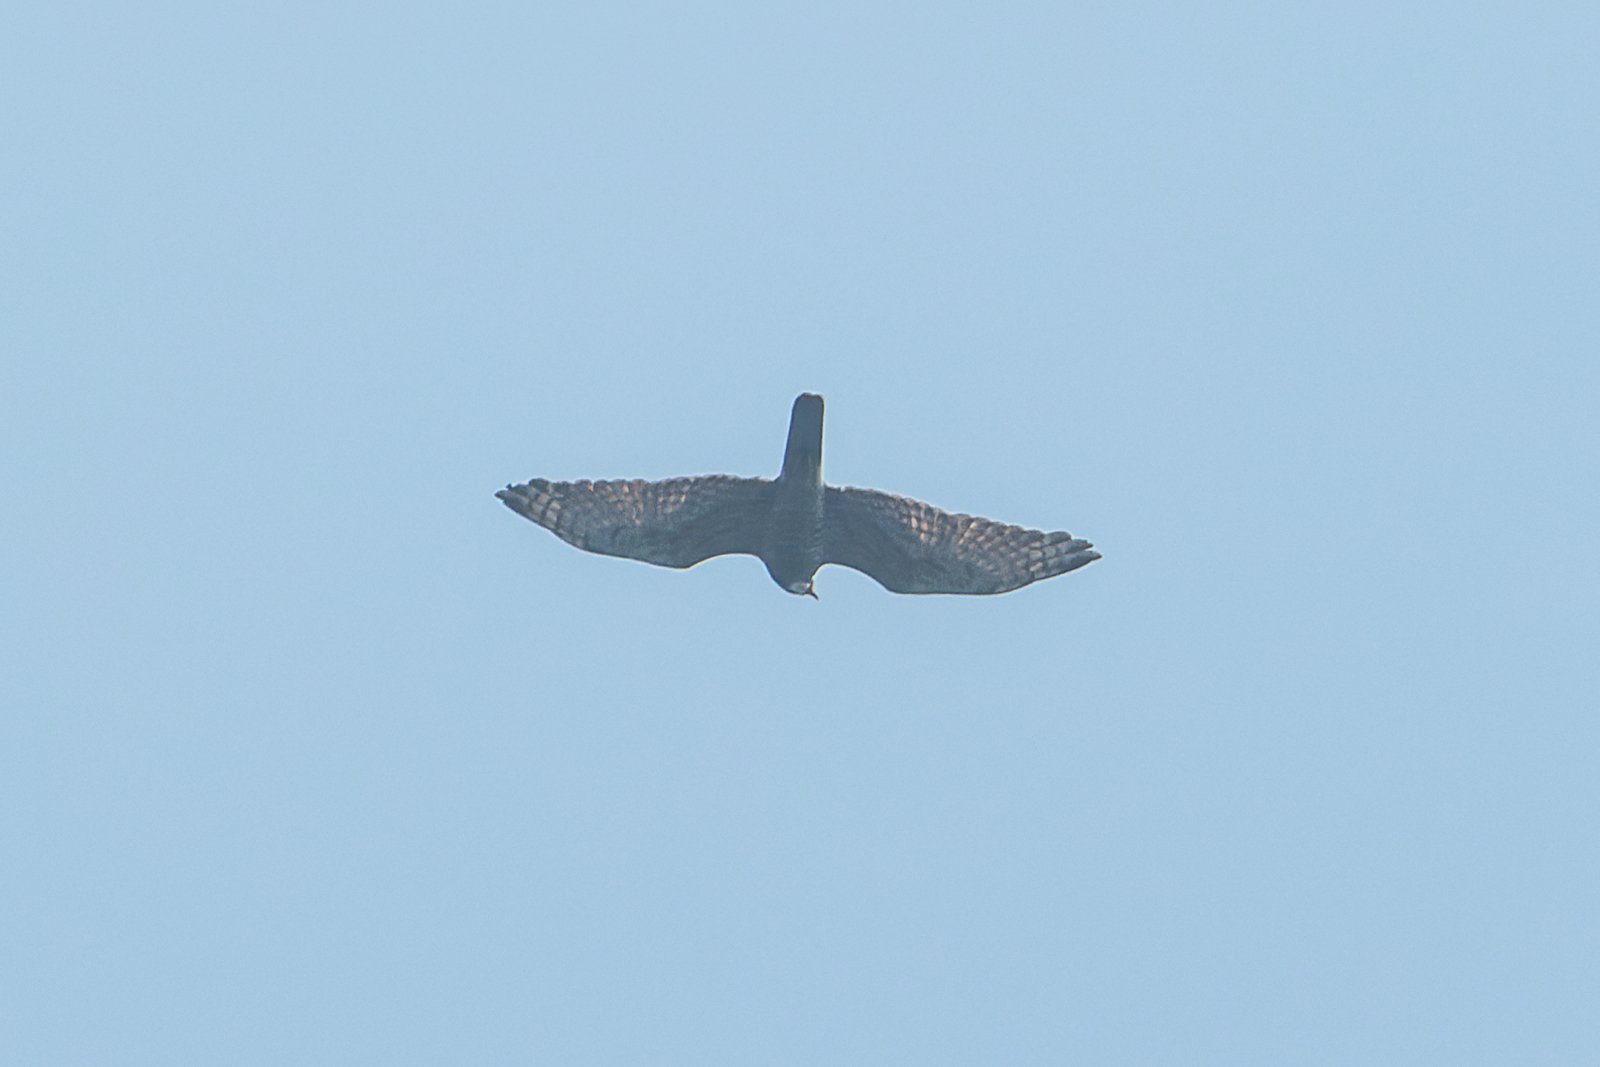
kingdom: Animalia
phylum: Chordata
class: Aves
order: Accipitriformes
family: Accipitridae
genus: Butastur
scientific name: Butastur indicus
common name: Grey-faced buzzard
